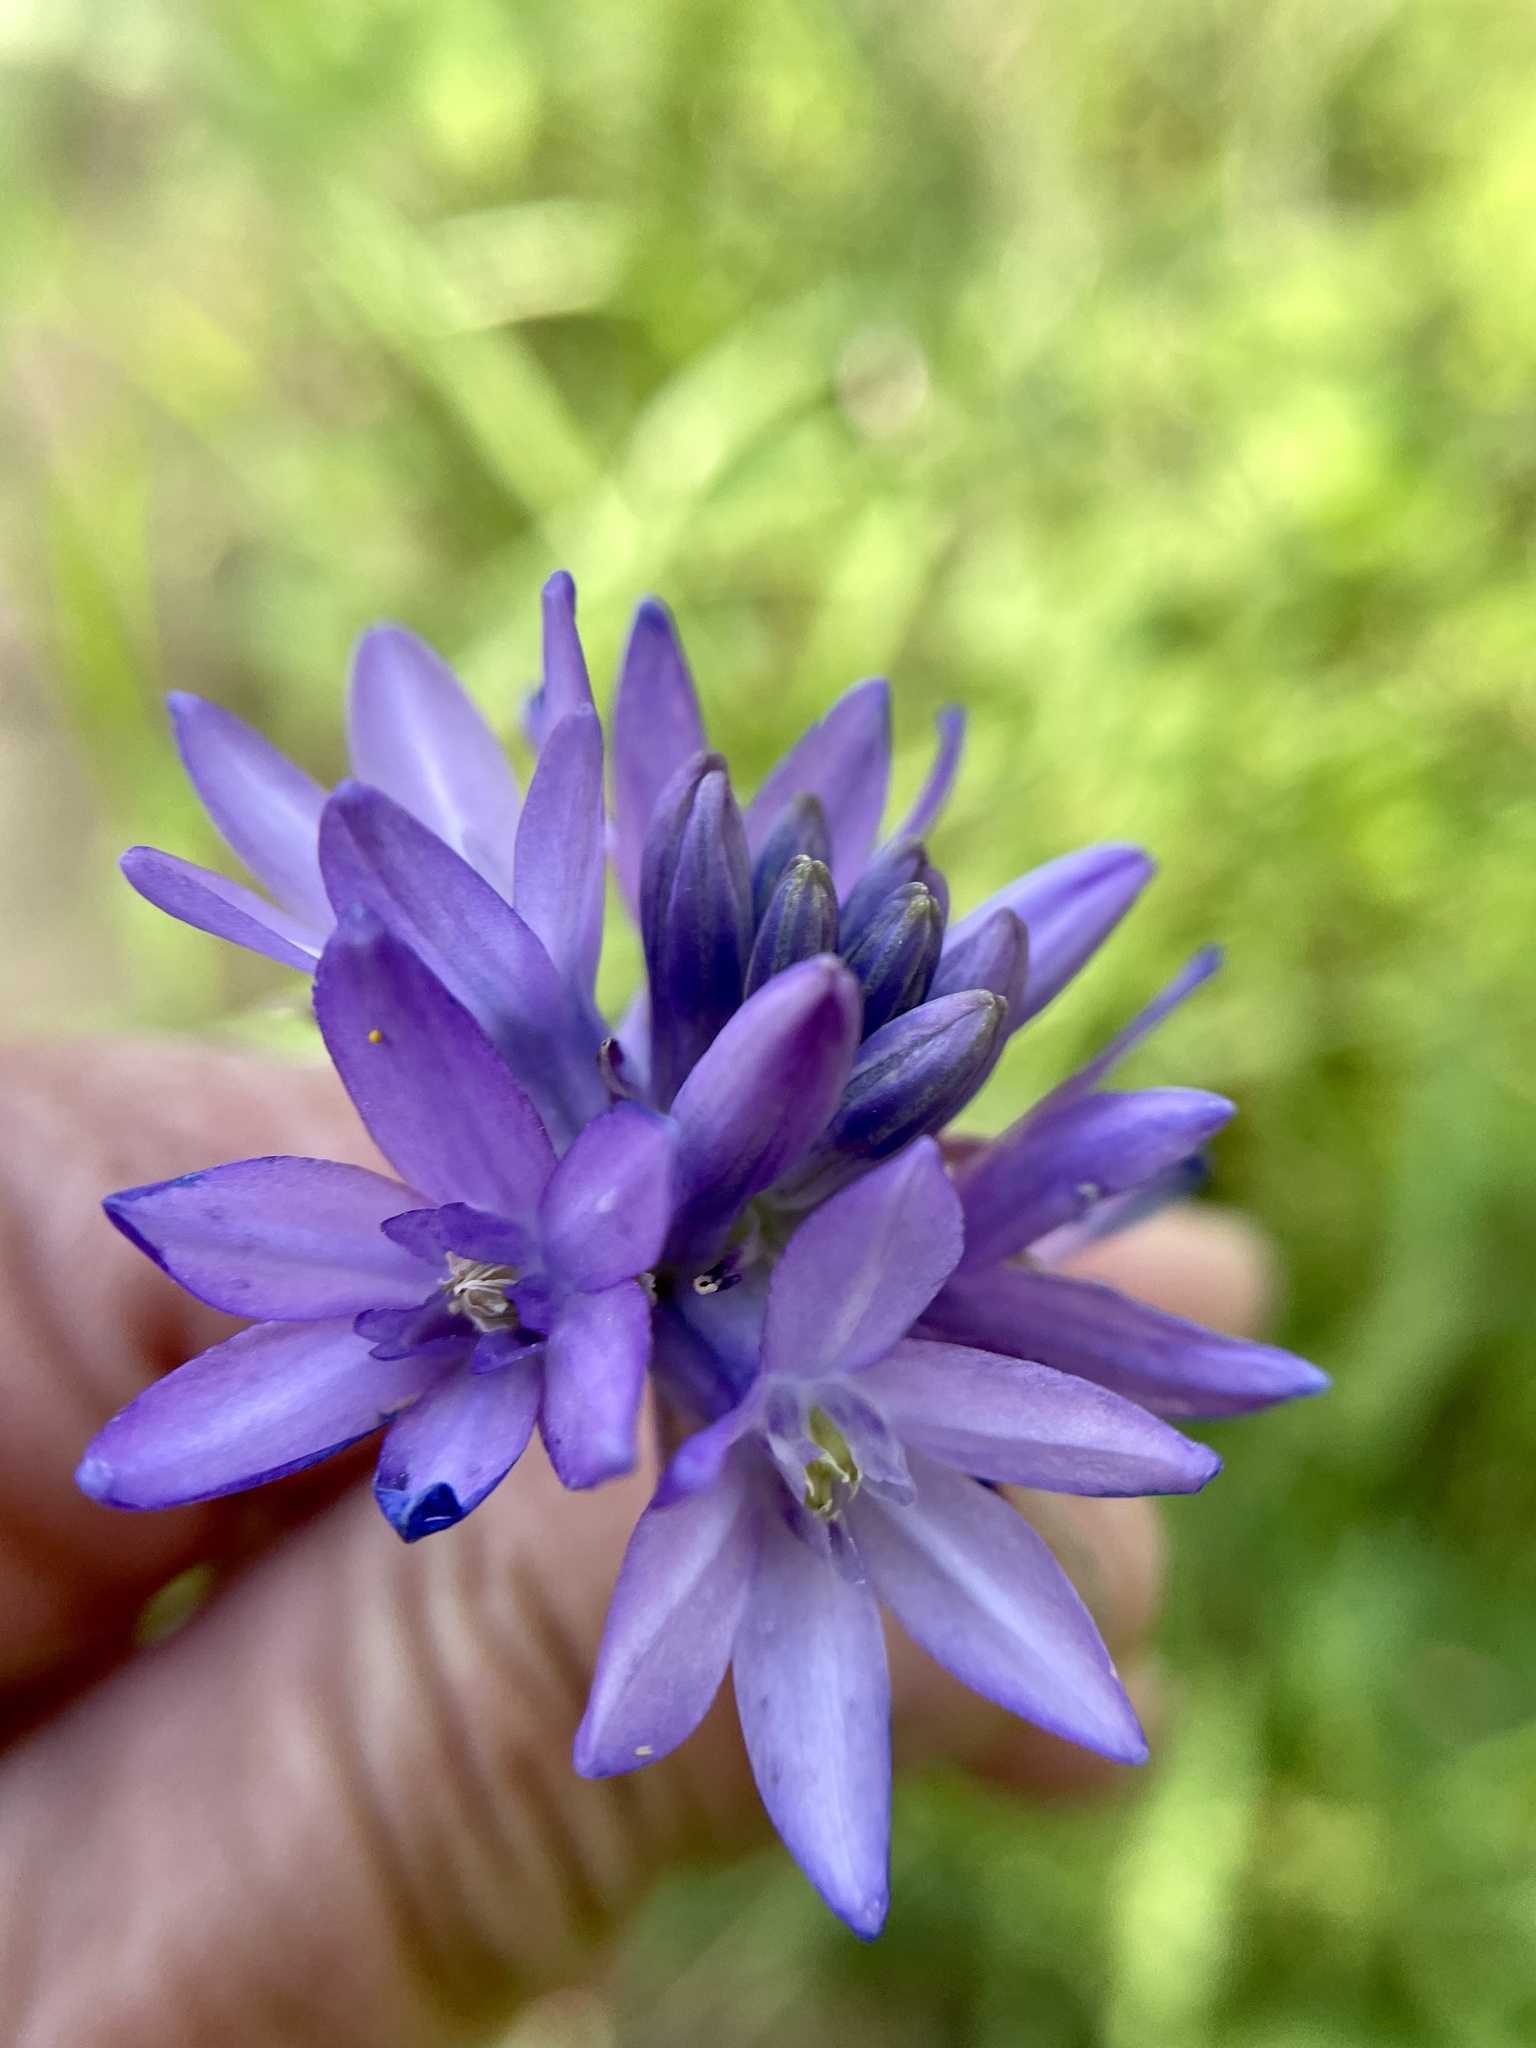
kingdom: Plantae
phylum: Tracheophyta
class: Liliopsida
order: Asparagales
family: Asparagaceae
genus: Dichelostemma
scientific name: Dichelostemma congestum
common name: Fork-tooth ookow
